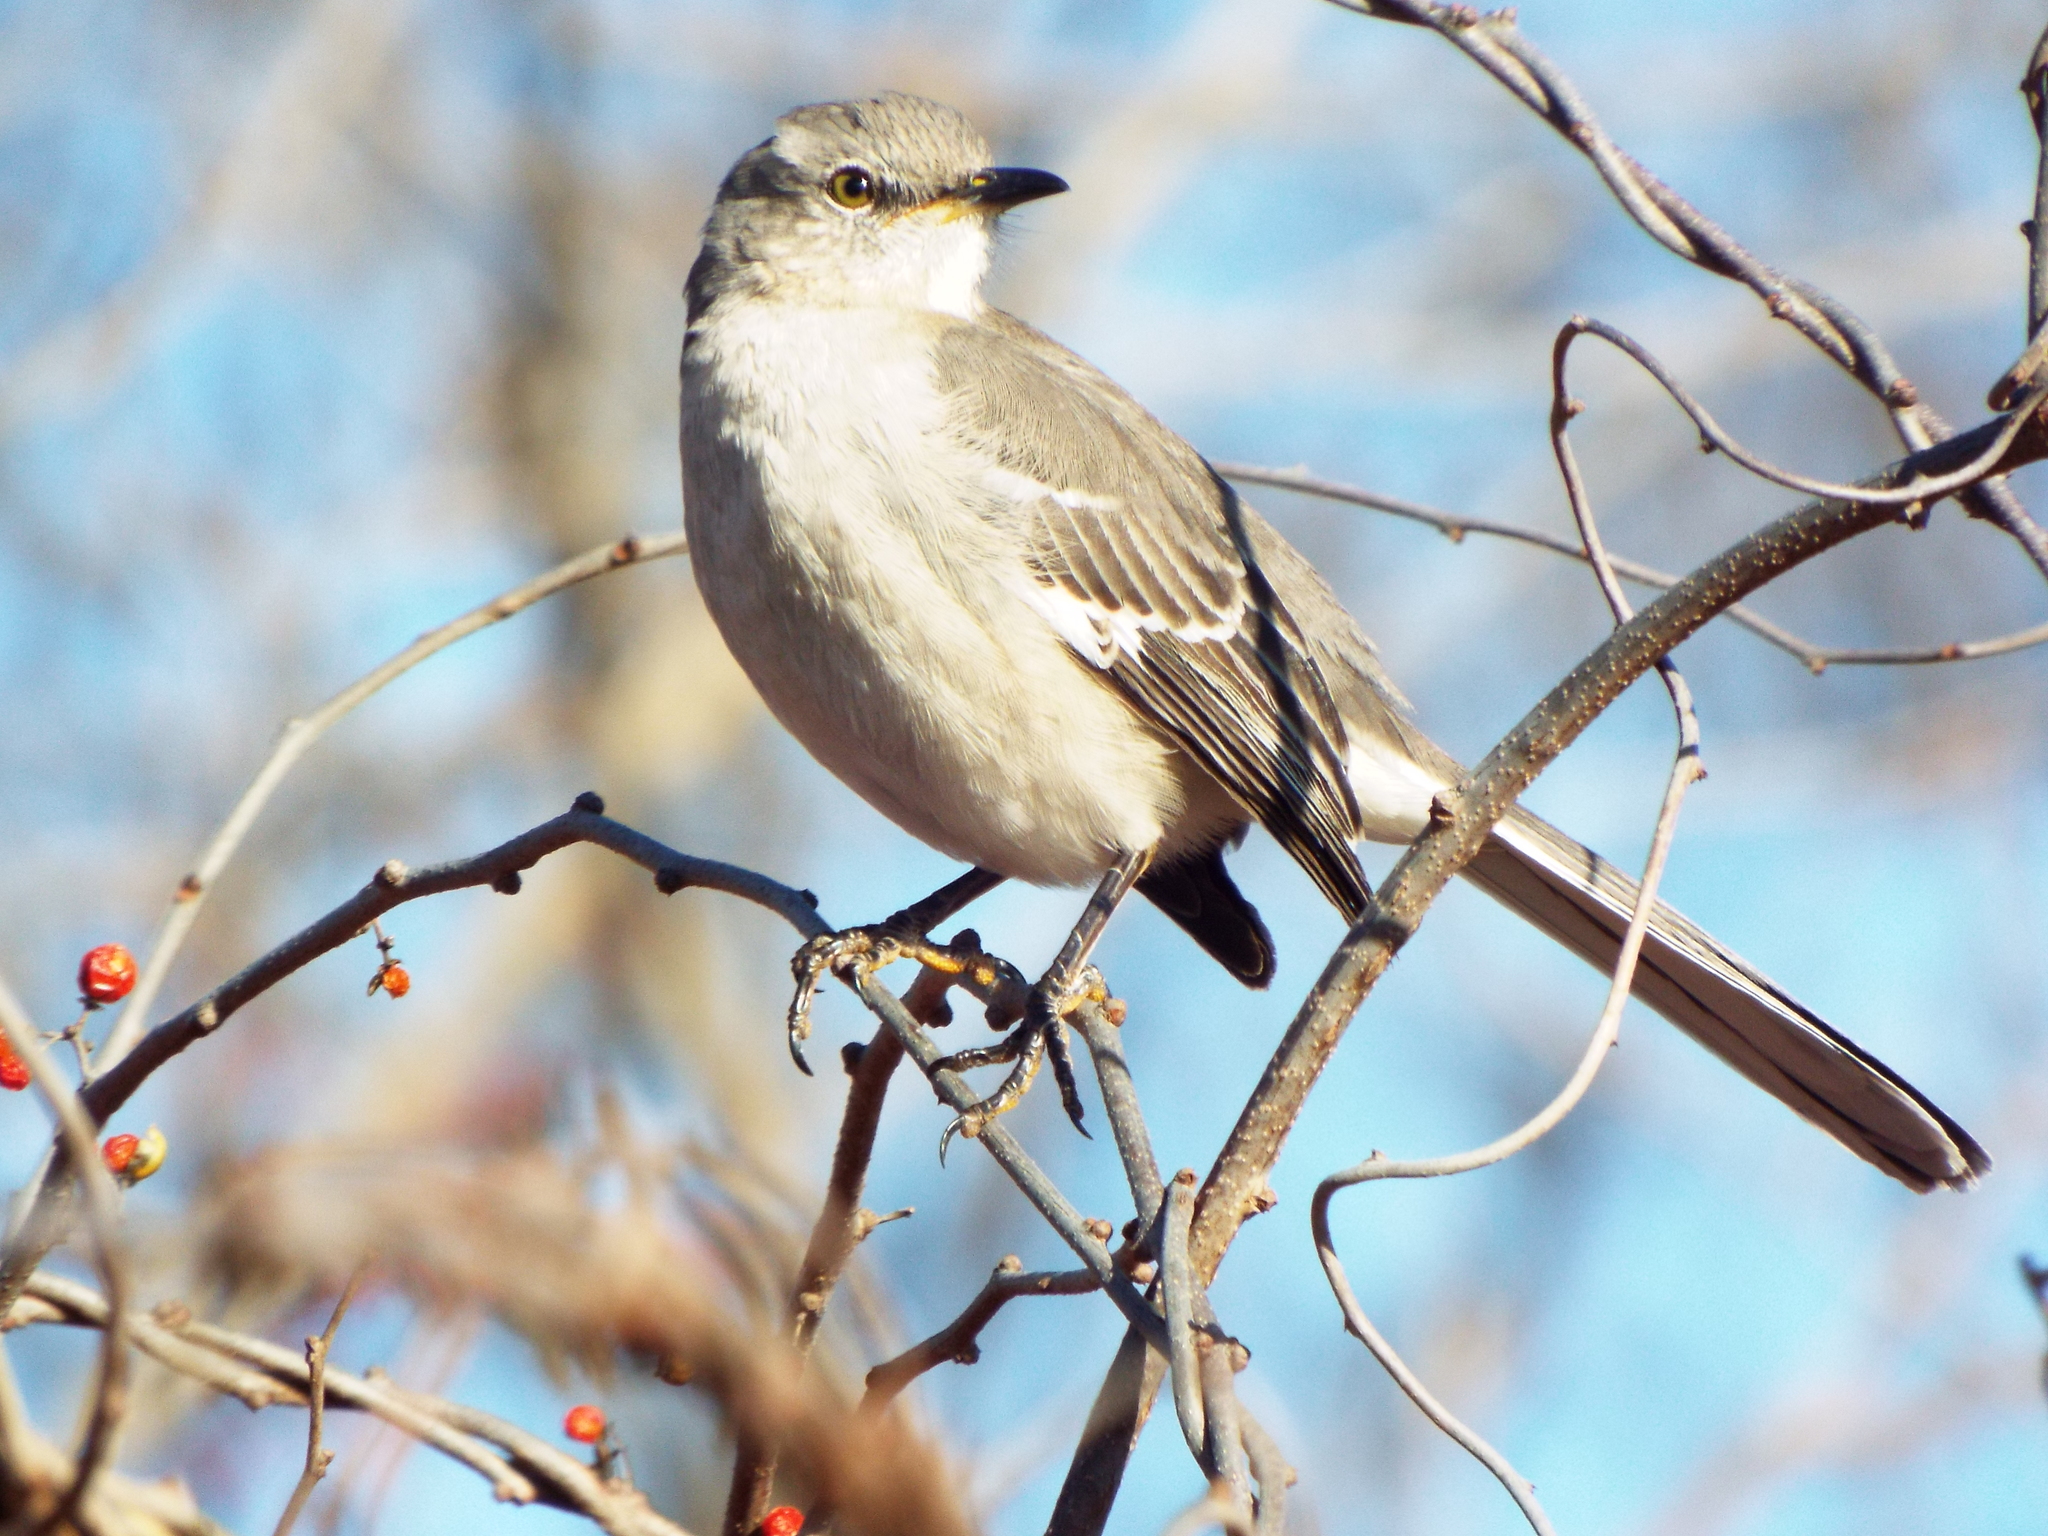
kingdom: Animalia
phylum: Chordata
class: Aves
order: Passeriformes
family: Mimidae
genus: Mimus
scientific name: Mimus polyglottos
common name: Northern mockingbird
